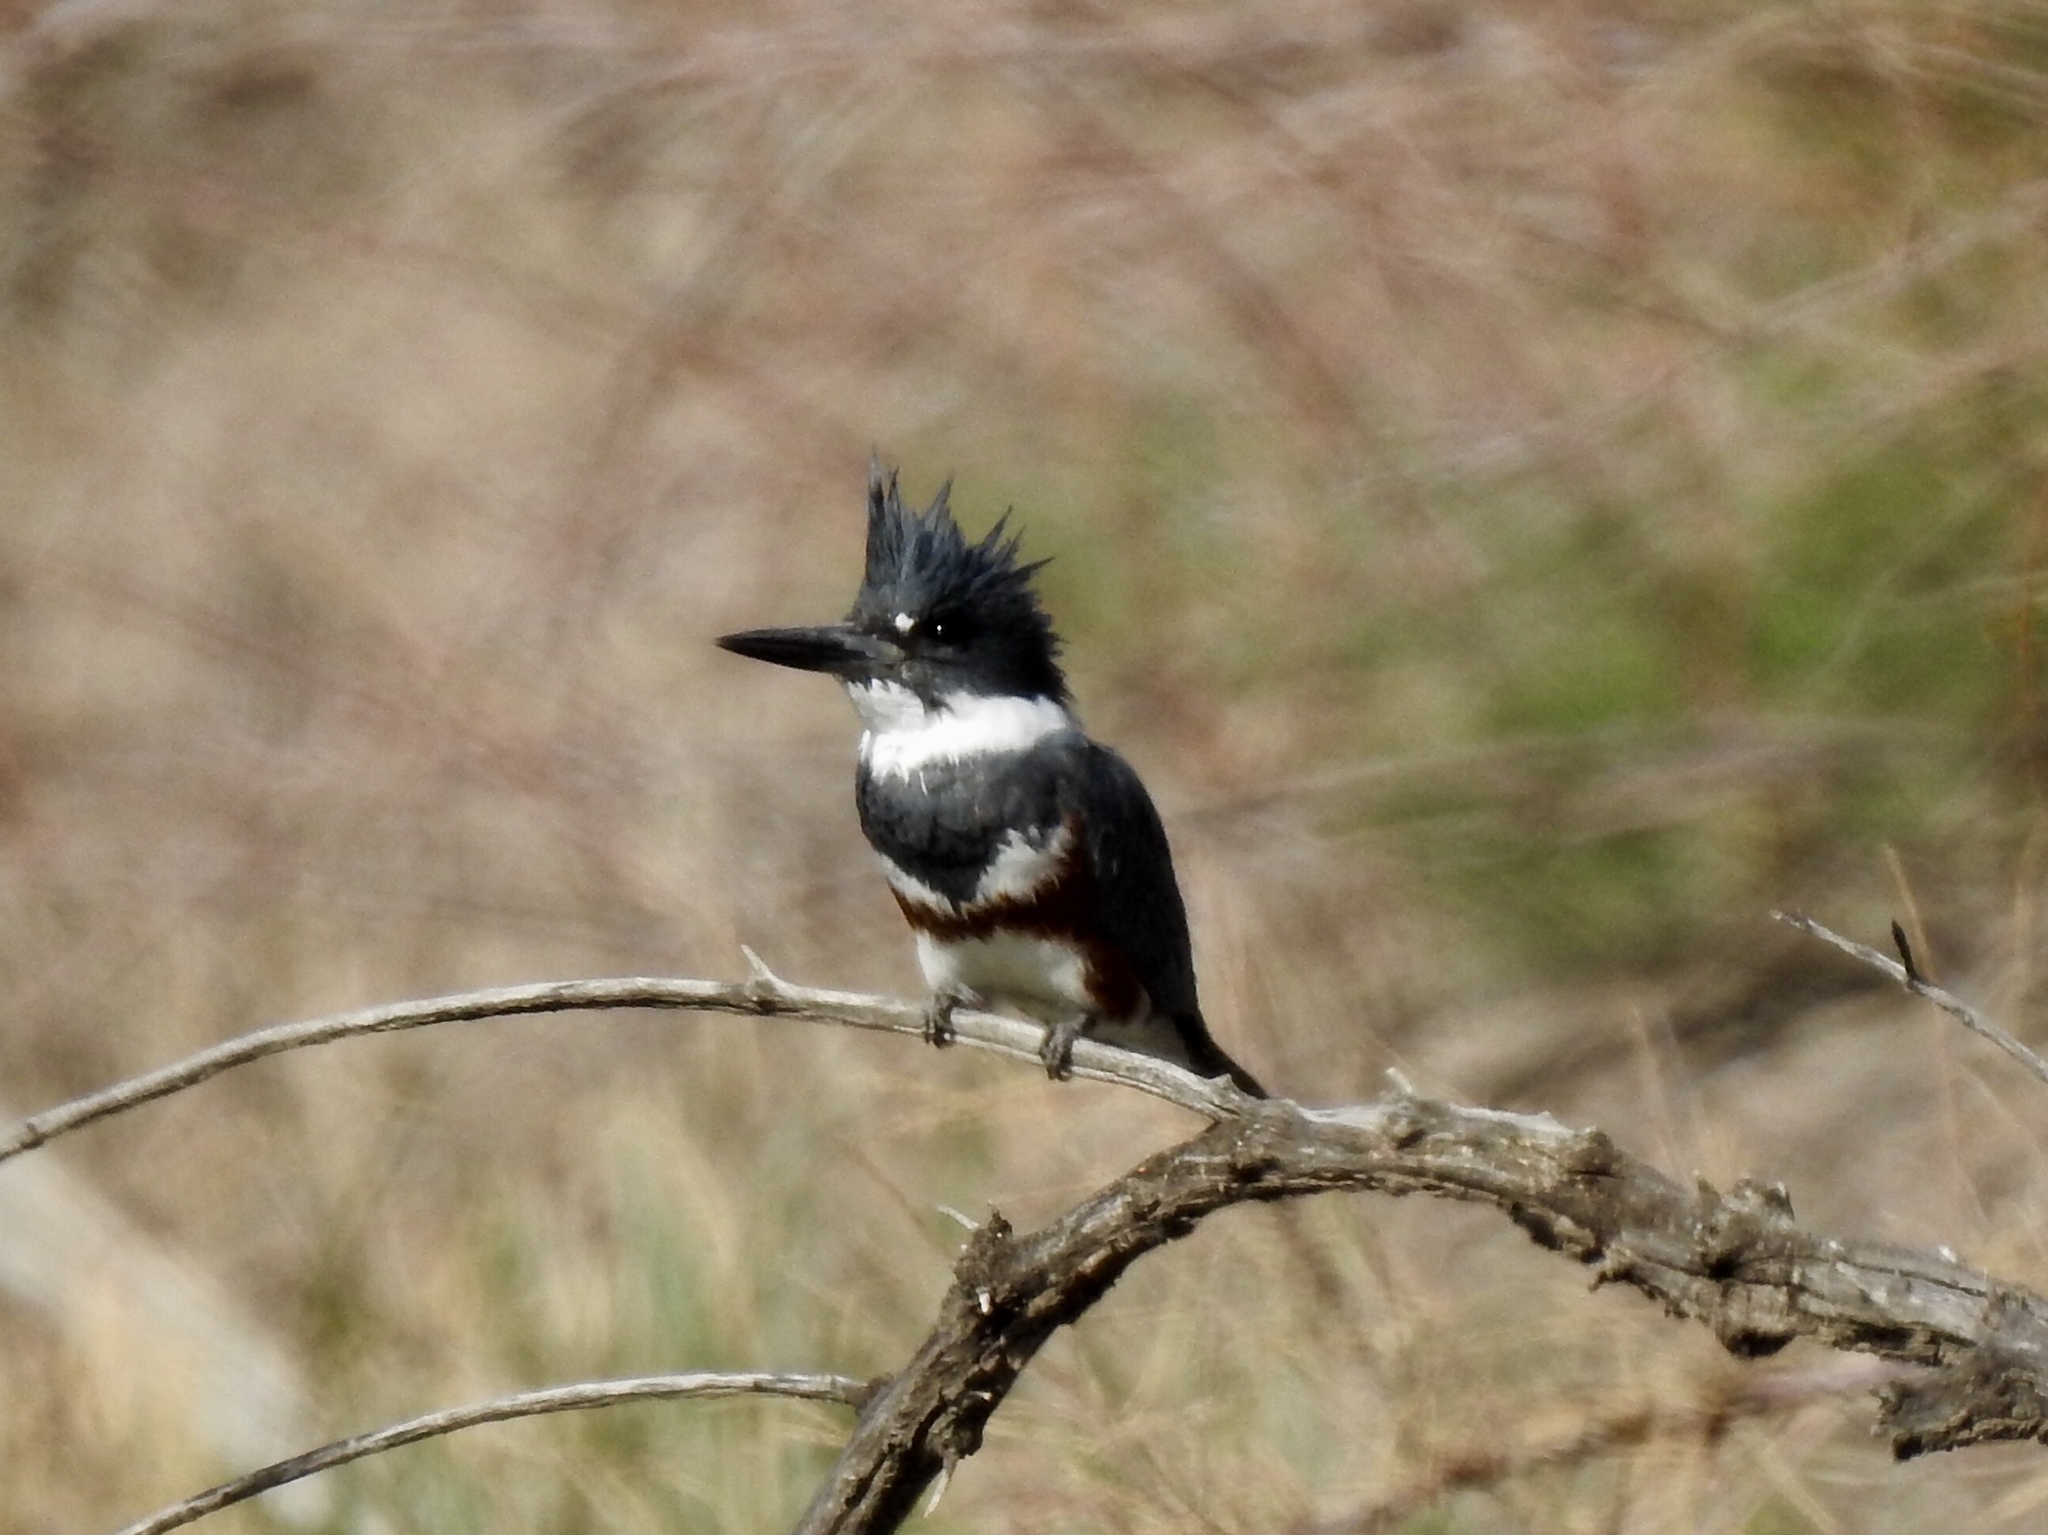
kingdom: Animalia
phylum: Chordata
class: Aves
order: Coraciiformes
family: Alcedinidae
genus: Megaceryle
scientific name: Megaceryle alcyon
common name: Belted kingfisher
